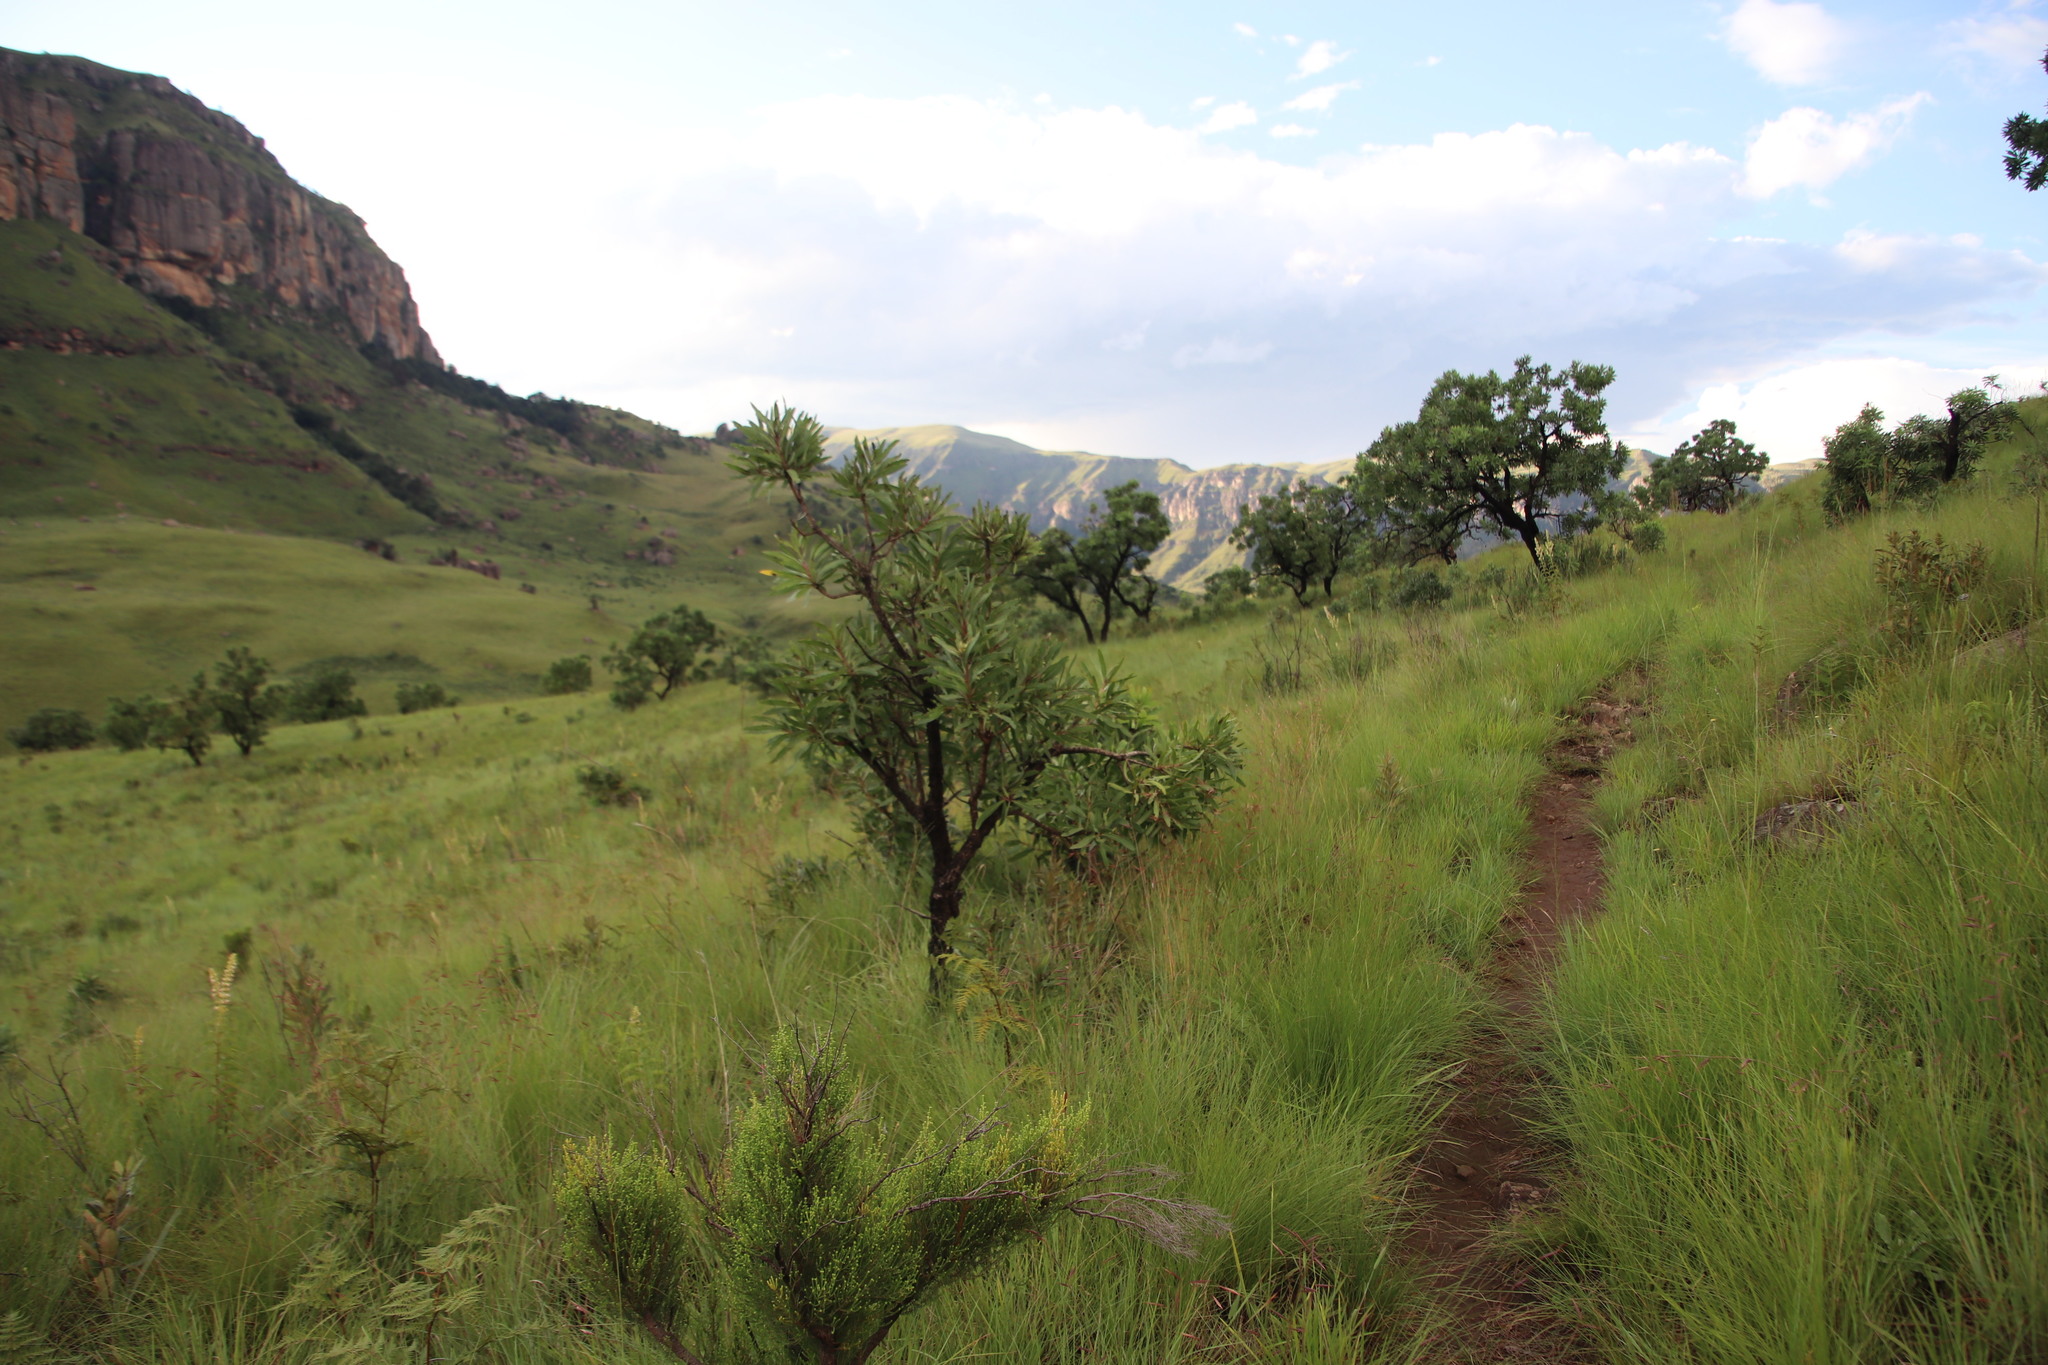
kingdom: Plantae
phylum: Tracheophyta
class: Magnoliopsida
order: Proteales
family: Proteaceae
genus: Protea
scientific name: Protea caffra
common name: Common sugarbush
